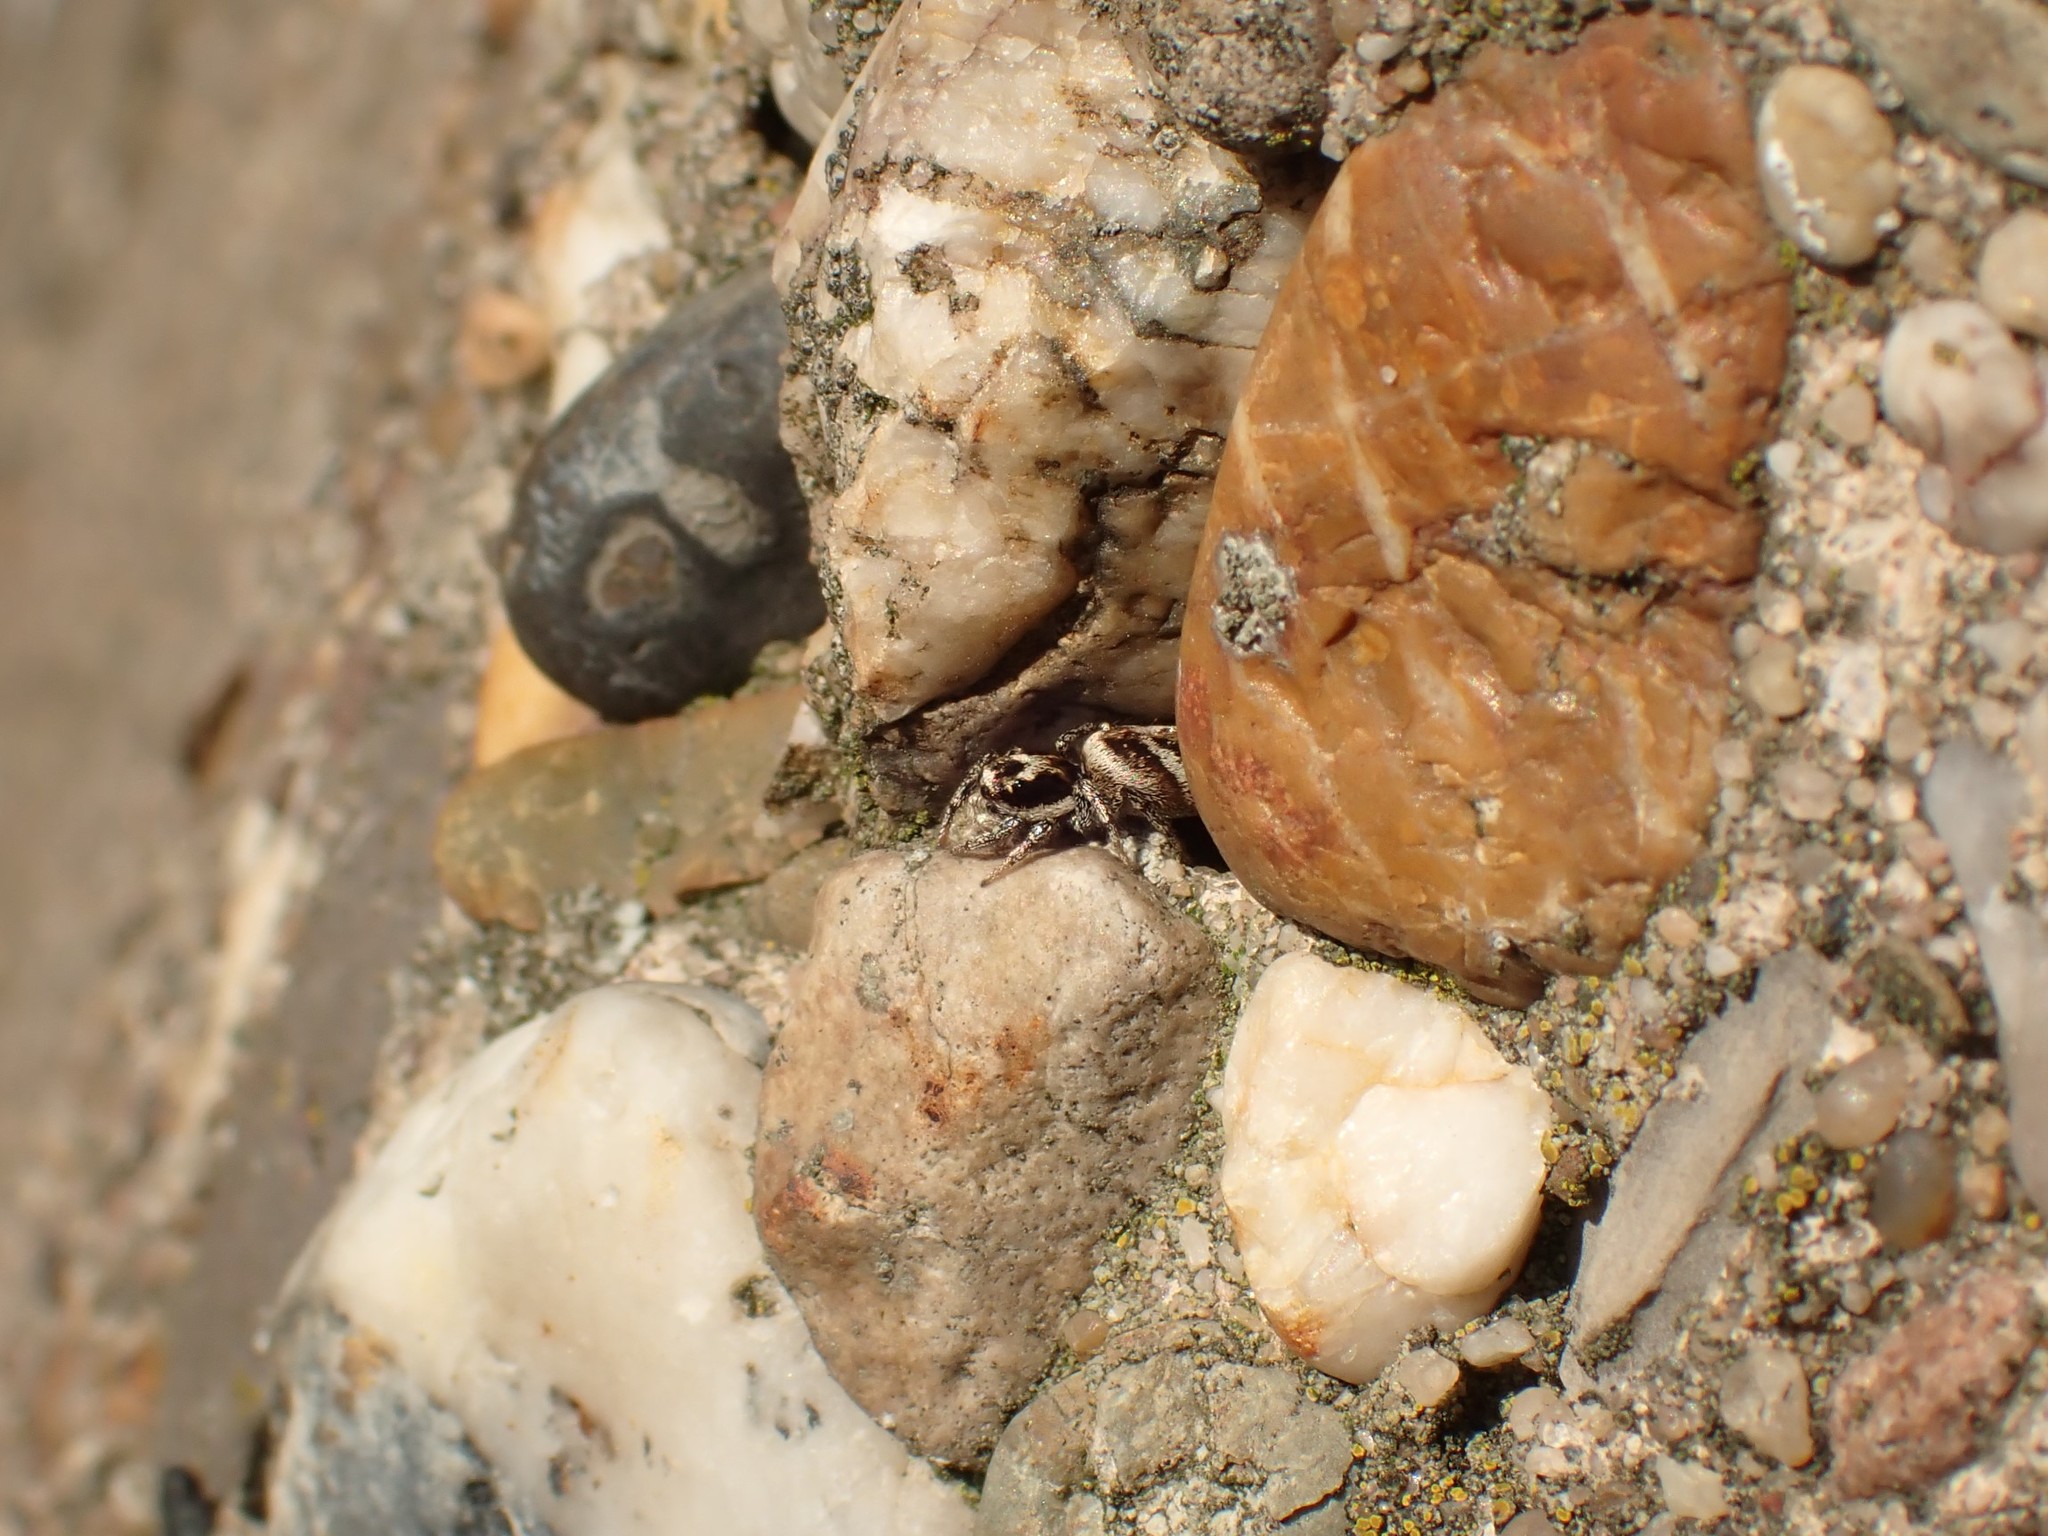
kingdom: Animalia
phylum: Arthropoda
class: Arachnida
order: Araneae
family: Salticidae
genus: Salticus
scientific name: Salticus scenicus
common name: Zebra jumper
